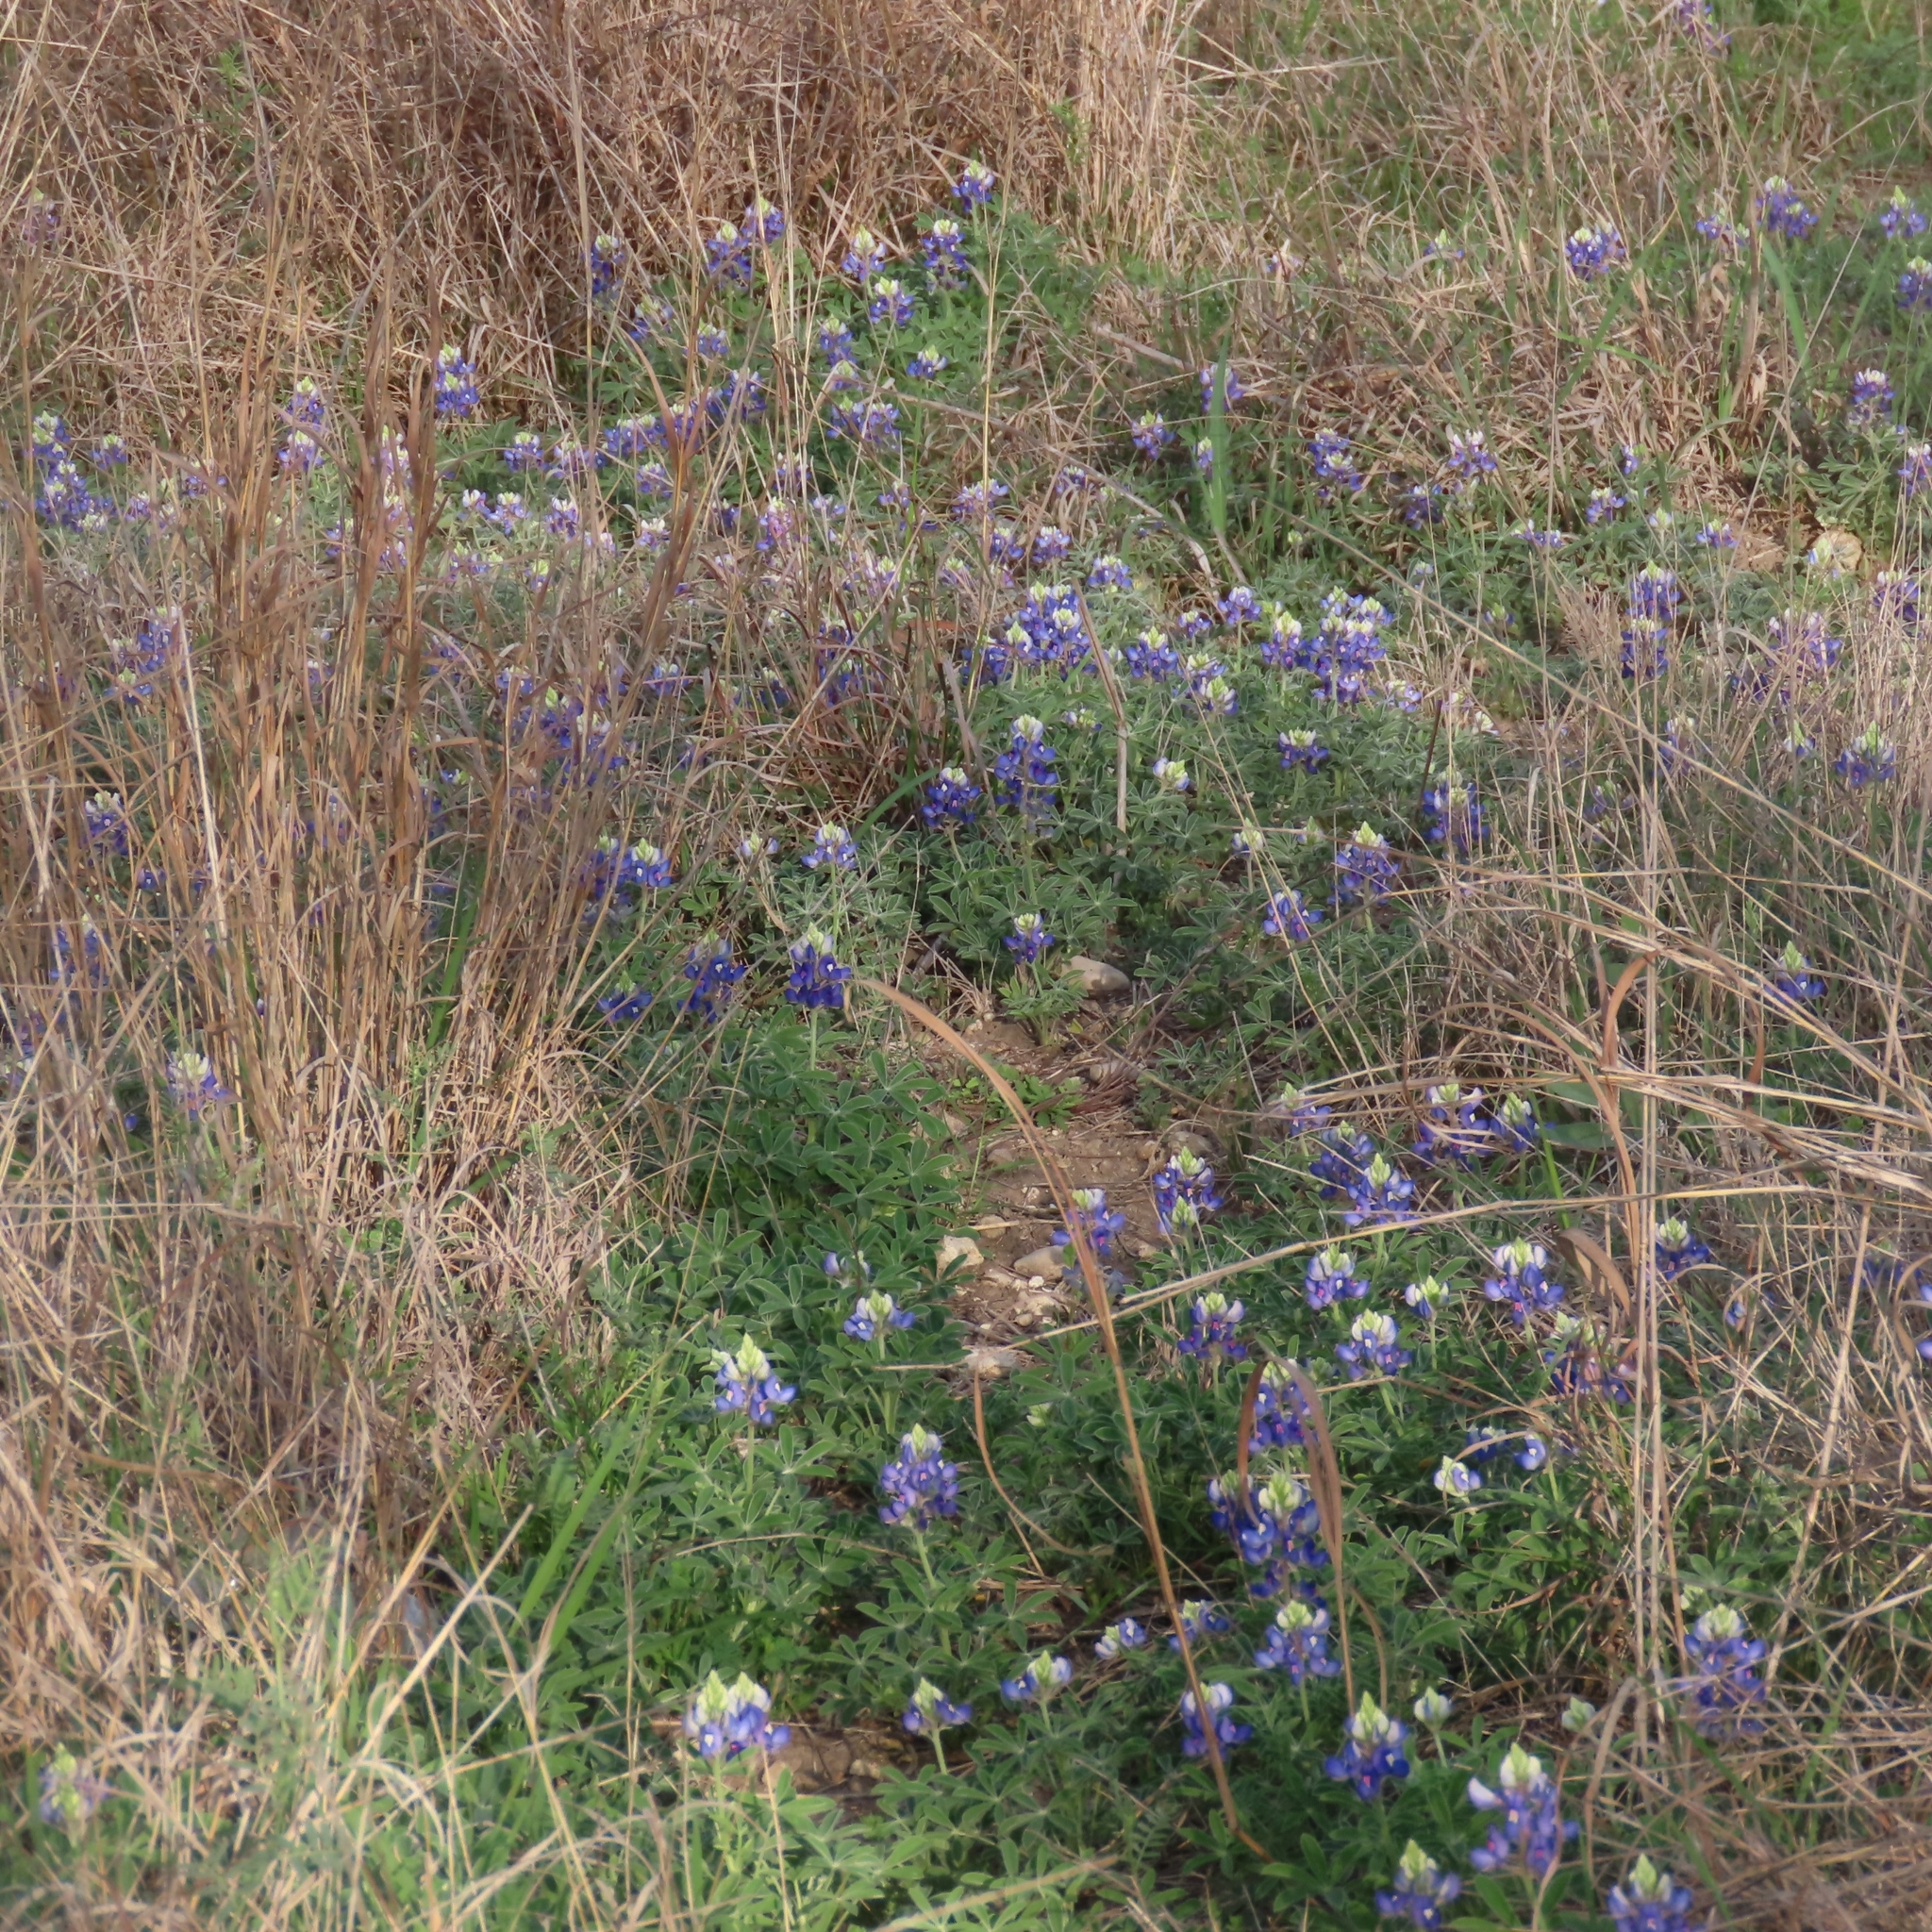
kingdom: Plantae
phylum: Tracheophyta
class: Magnoliopsida
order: Fabales
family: Fabaceae
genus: Lupinus
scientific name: Lupinus texensis
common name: Texas bluebonnet
